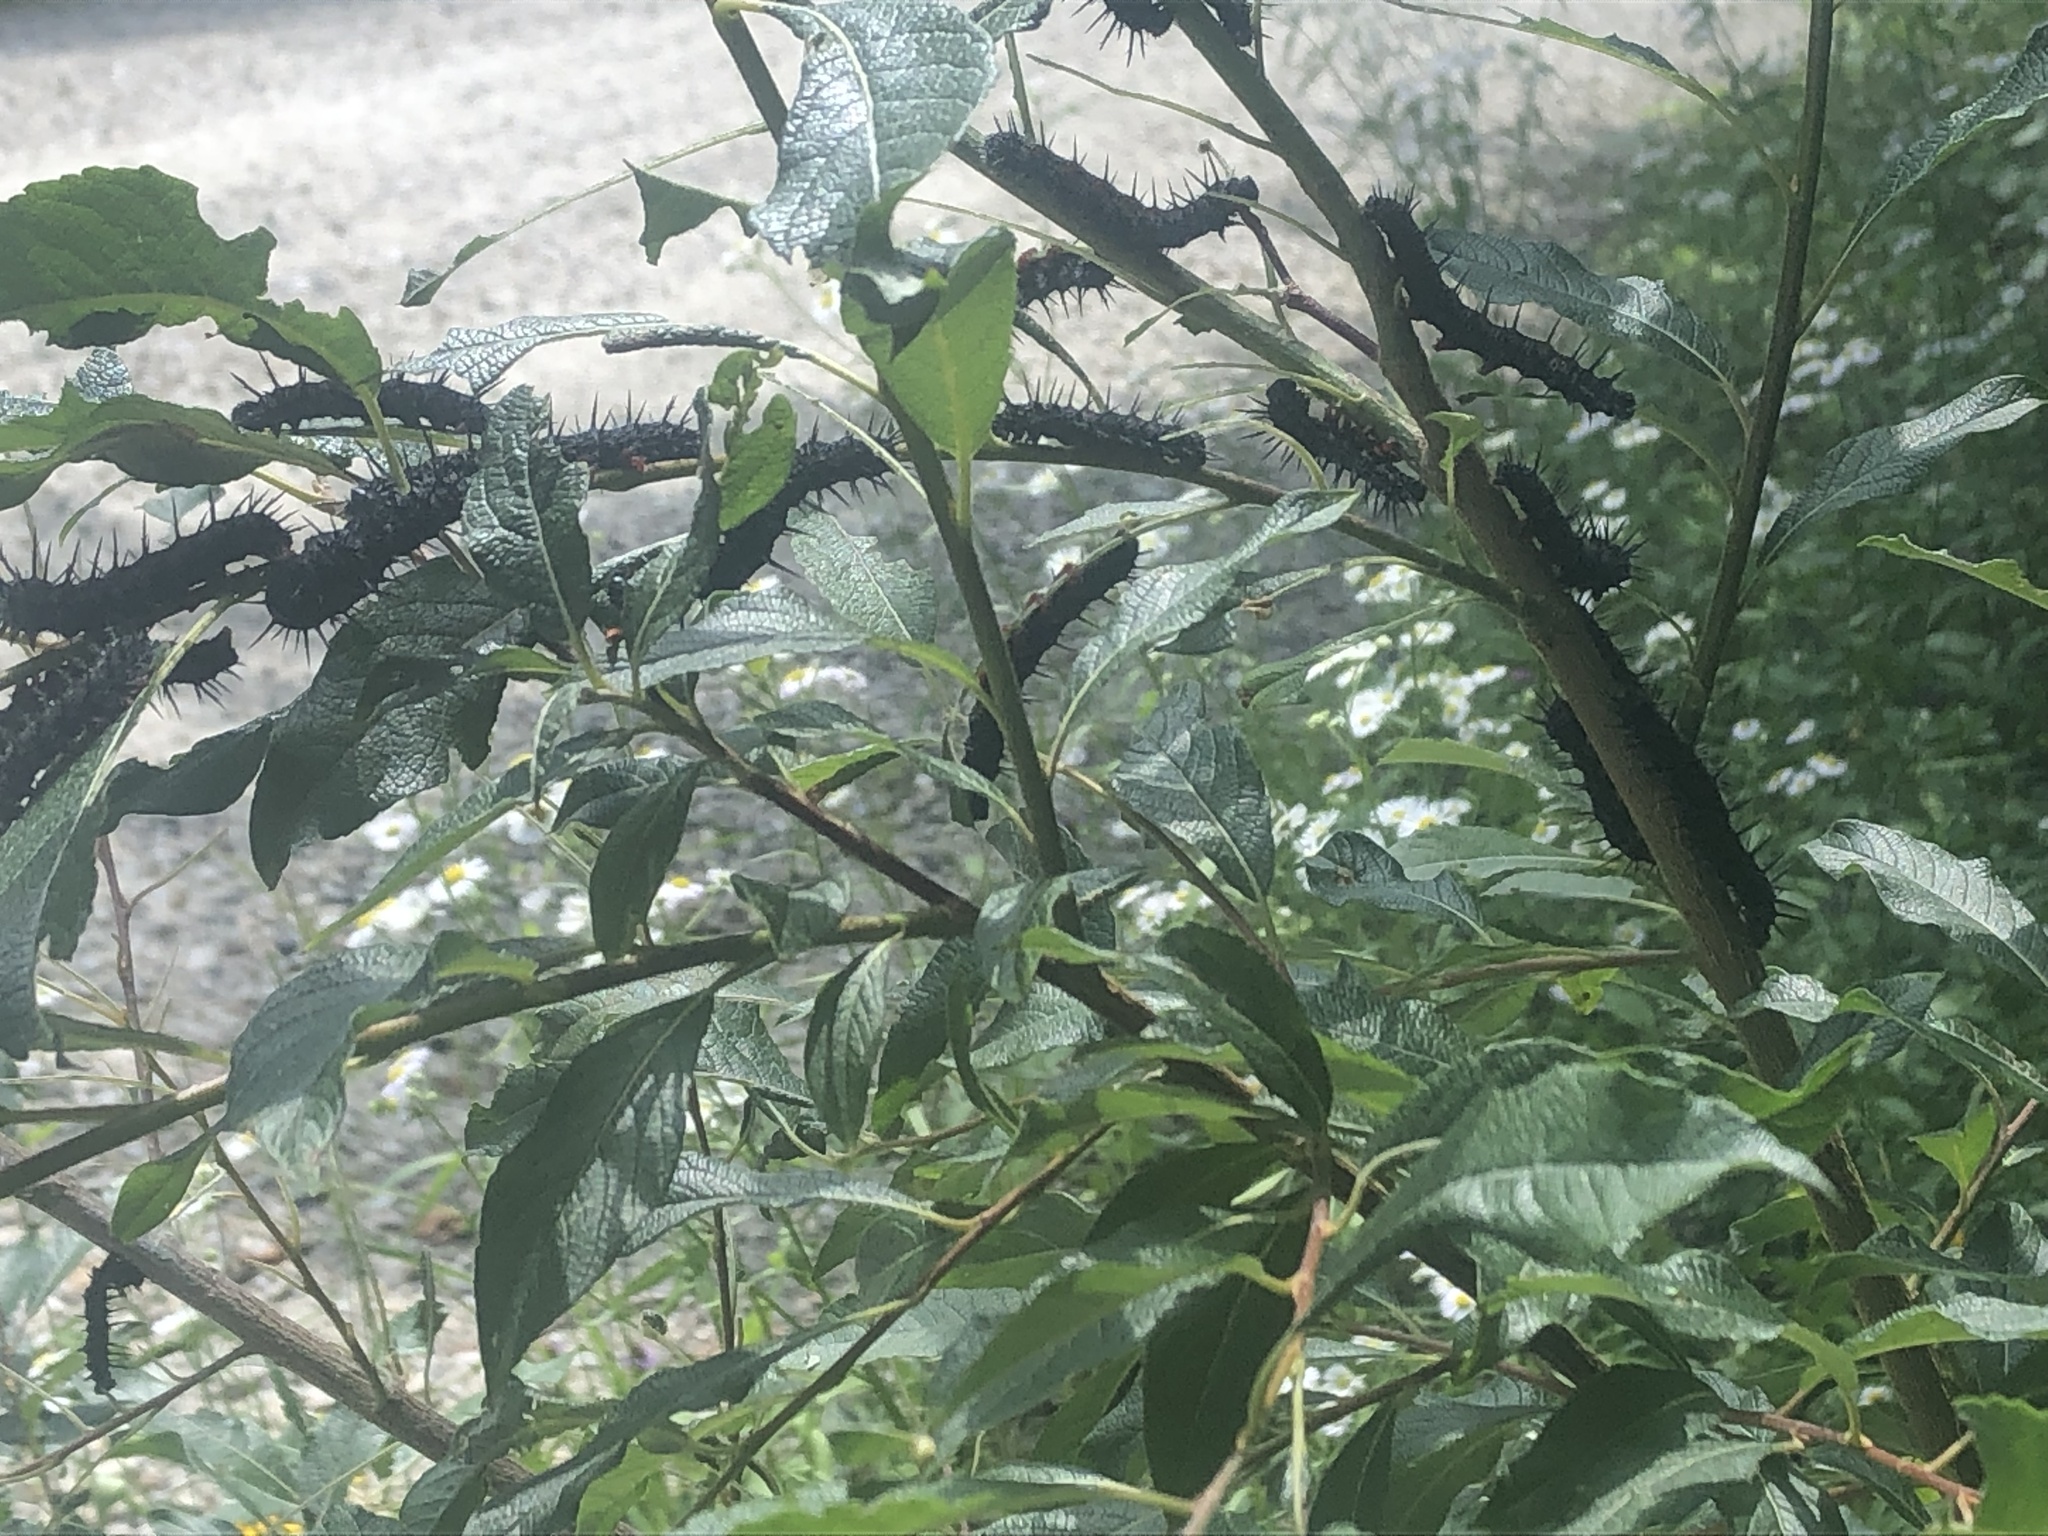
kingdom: Animalia
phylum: Arthropoda
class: Insecta
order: Lepidoptera
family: Nymphalidae
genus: Nymphalis
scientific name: Nymphalis antiopa
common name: Camberwell beauty
